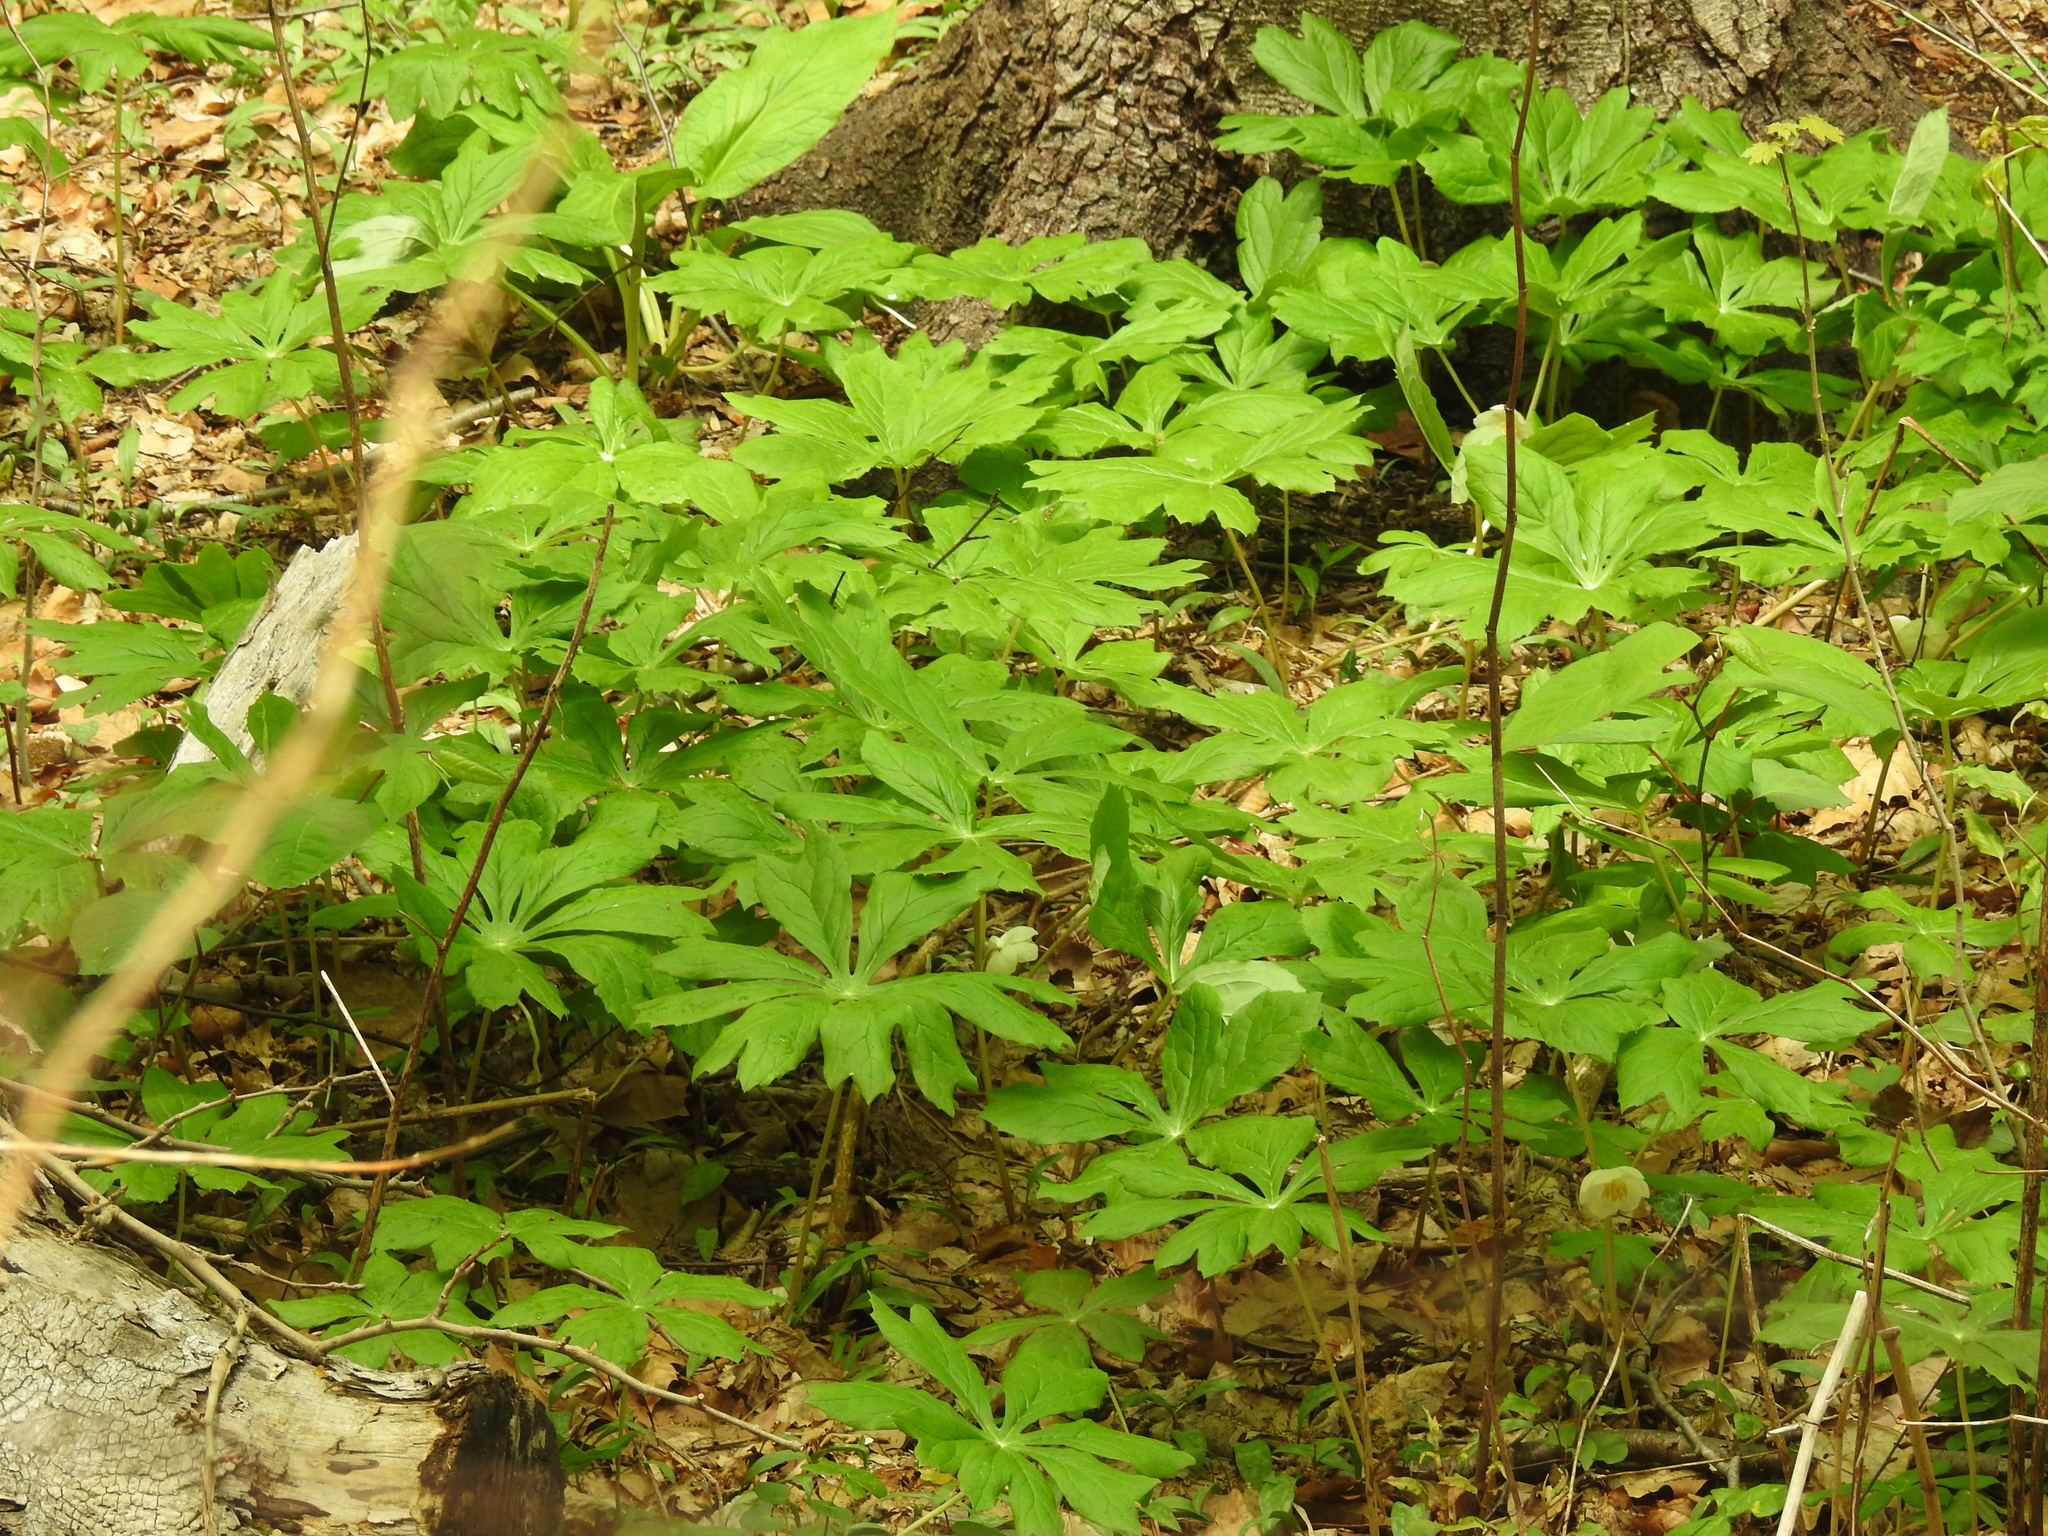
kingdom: Plantae
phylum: Tracheophyta
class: Magnoliopsida
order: Ranunculales
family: Berberidaceae
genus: Podophyllum
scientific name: Podophyllum peltatum
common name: Wild mandrake
